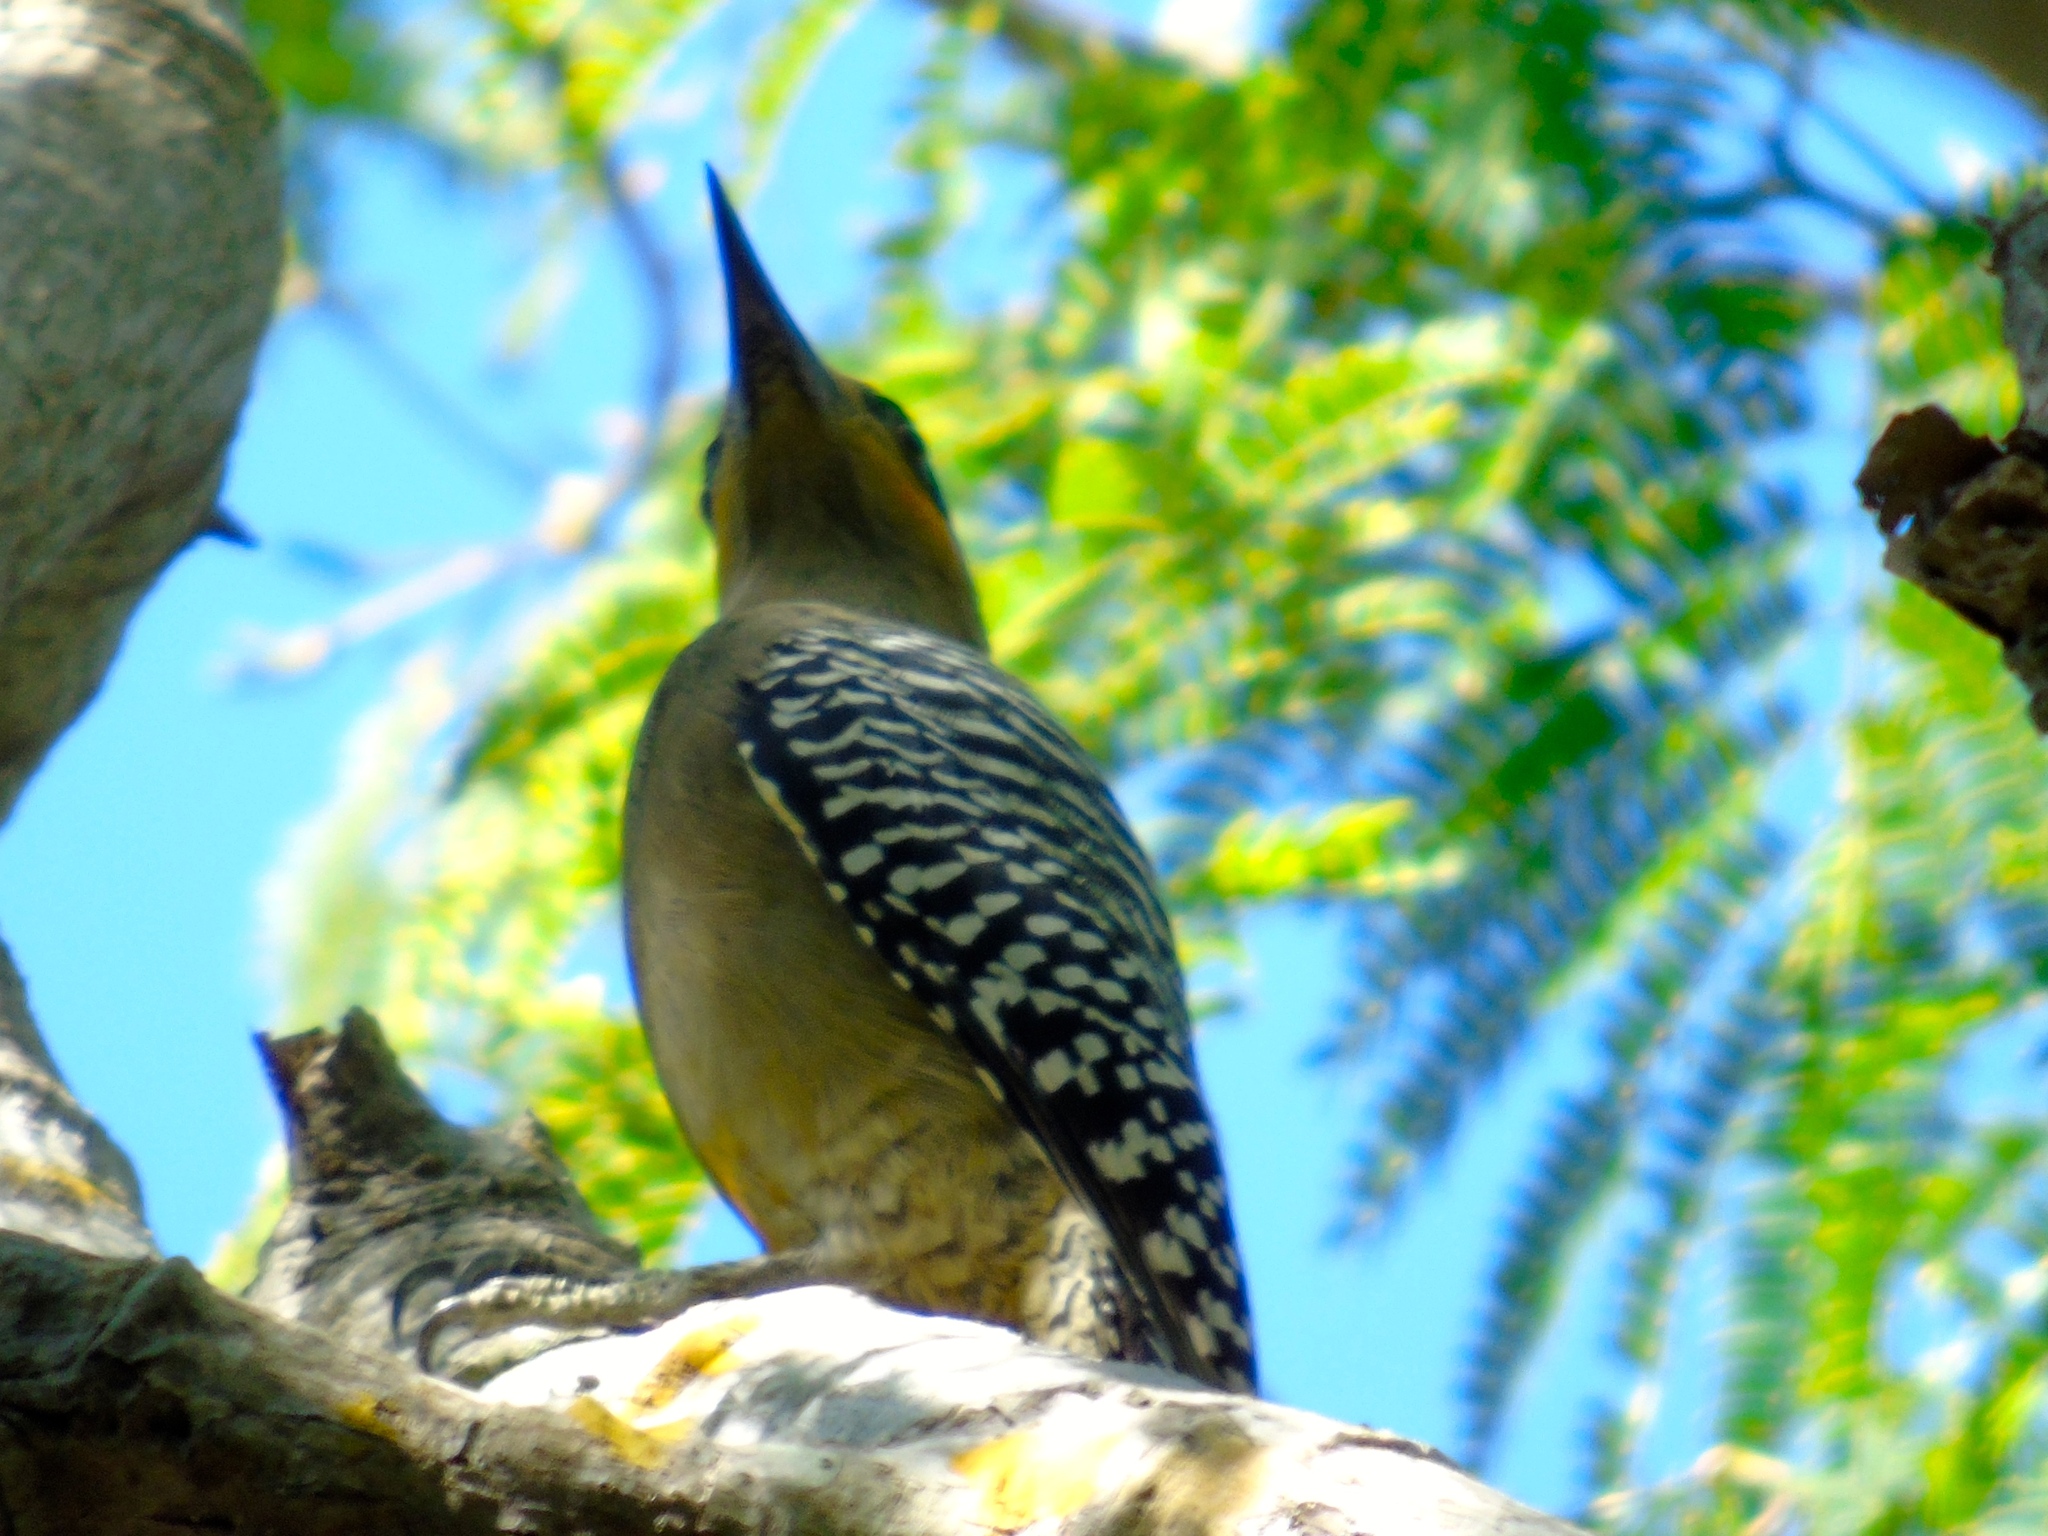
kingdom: Animalia
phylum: Chordata
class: Aves
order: Piciformes
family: Picidae
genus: Melanerpes
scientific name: Melanerpes chrysogenys
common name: Golden-cheeked woodpecker
